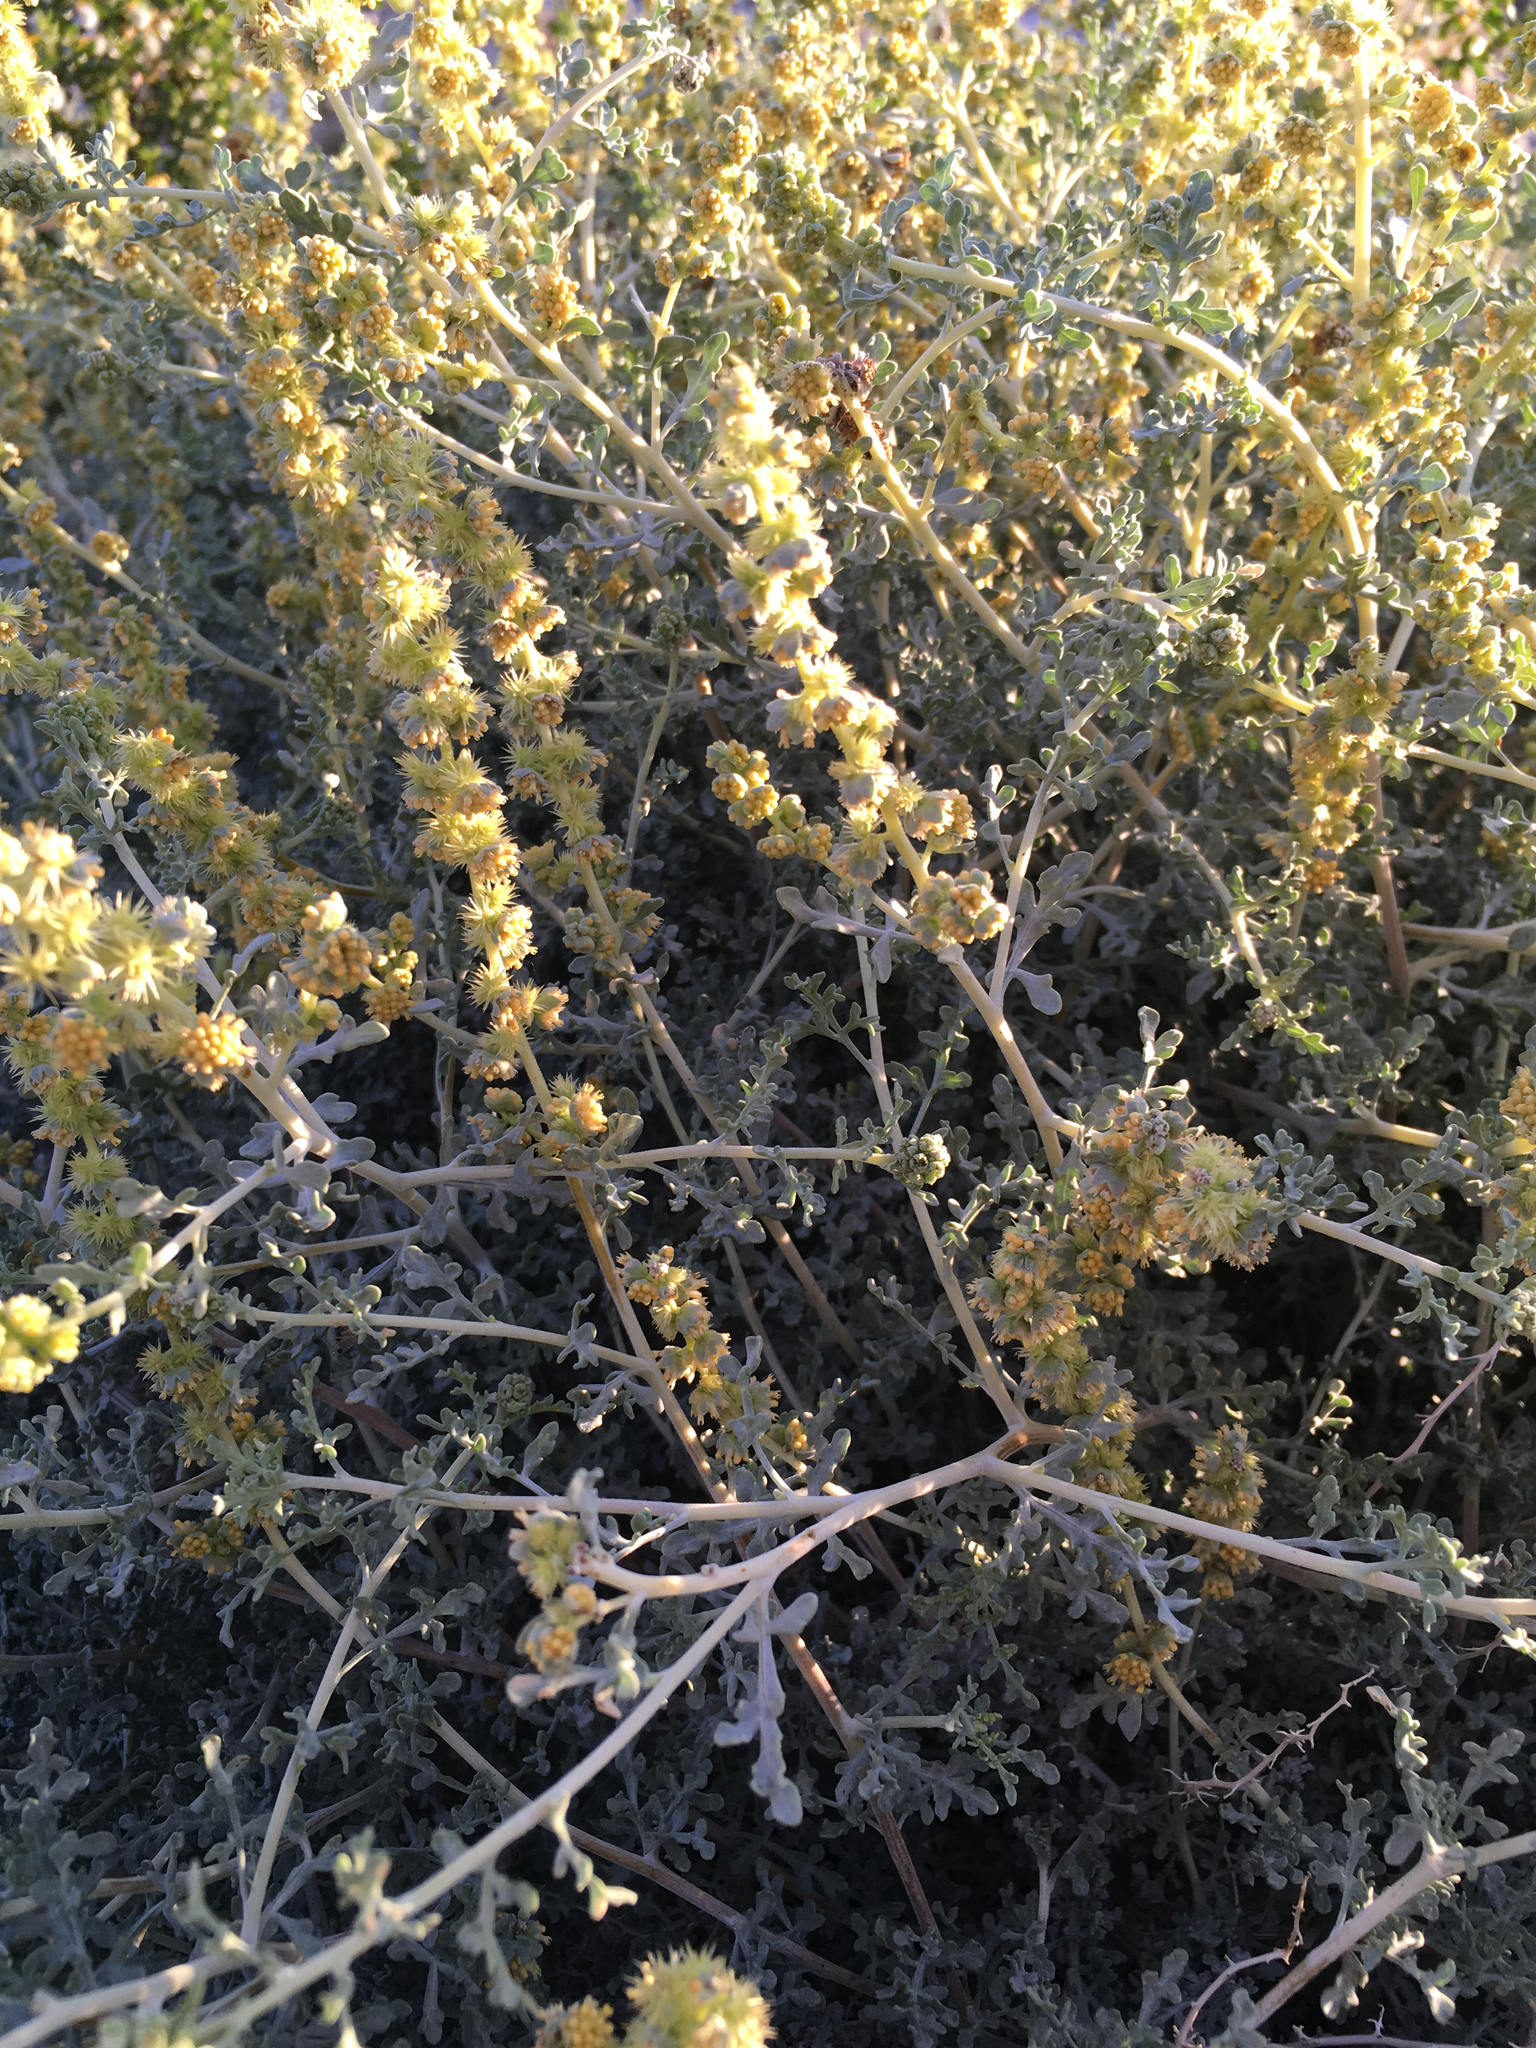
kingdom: Plantae
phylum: Tracheophyta
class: Magnoliopsida
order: Asterales
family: Asteraceae
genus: Ambrosia
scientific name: Ambrosia dumosa
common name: Bur-sage
